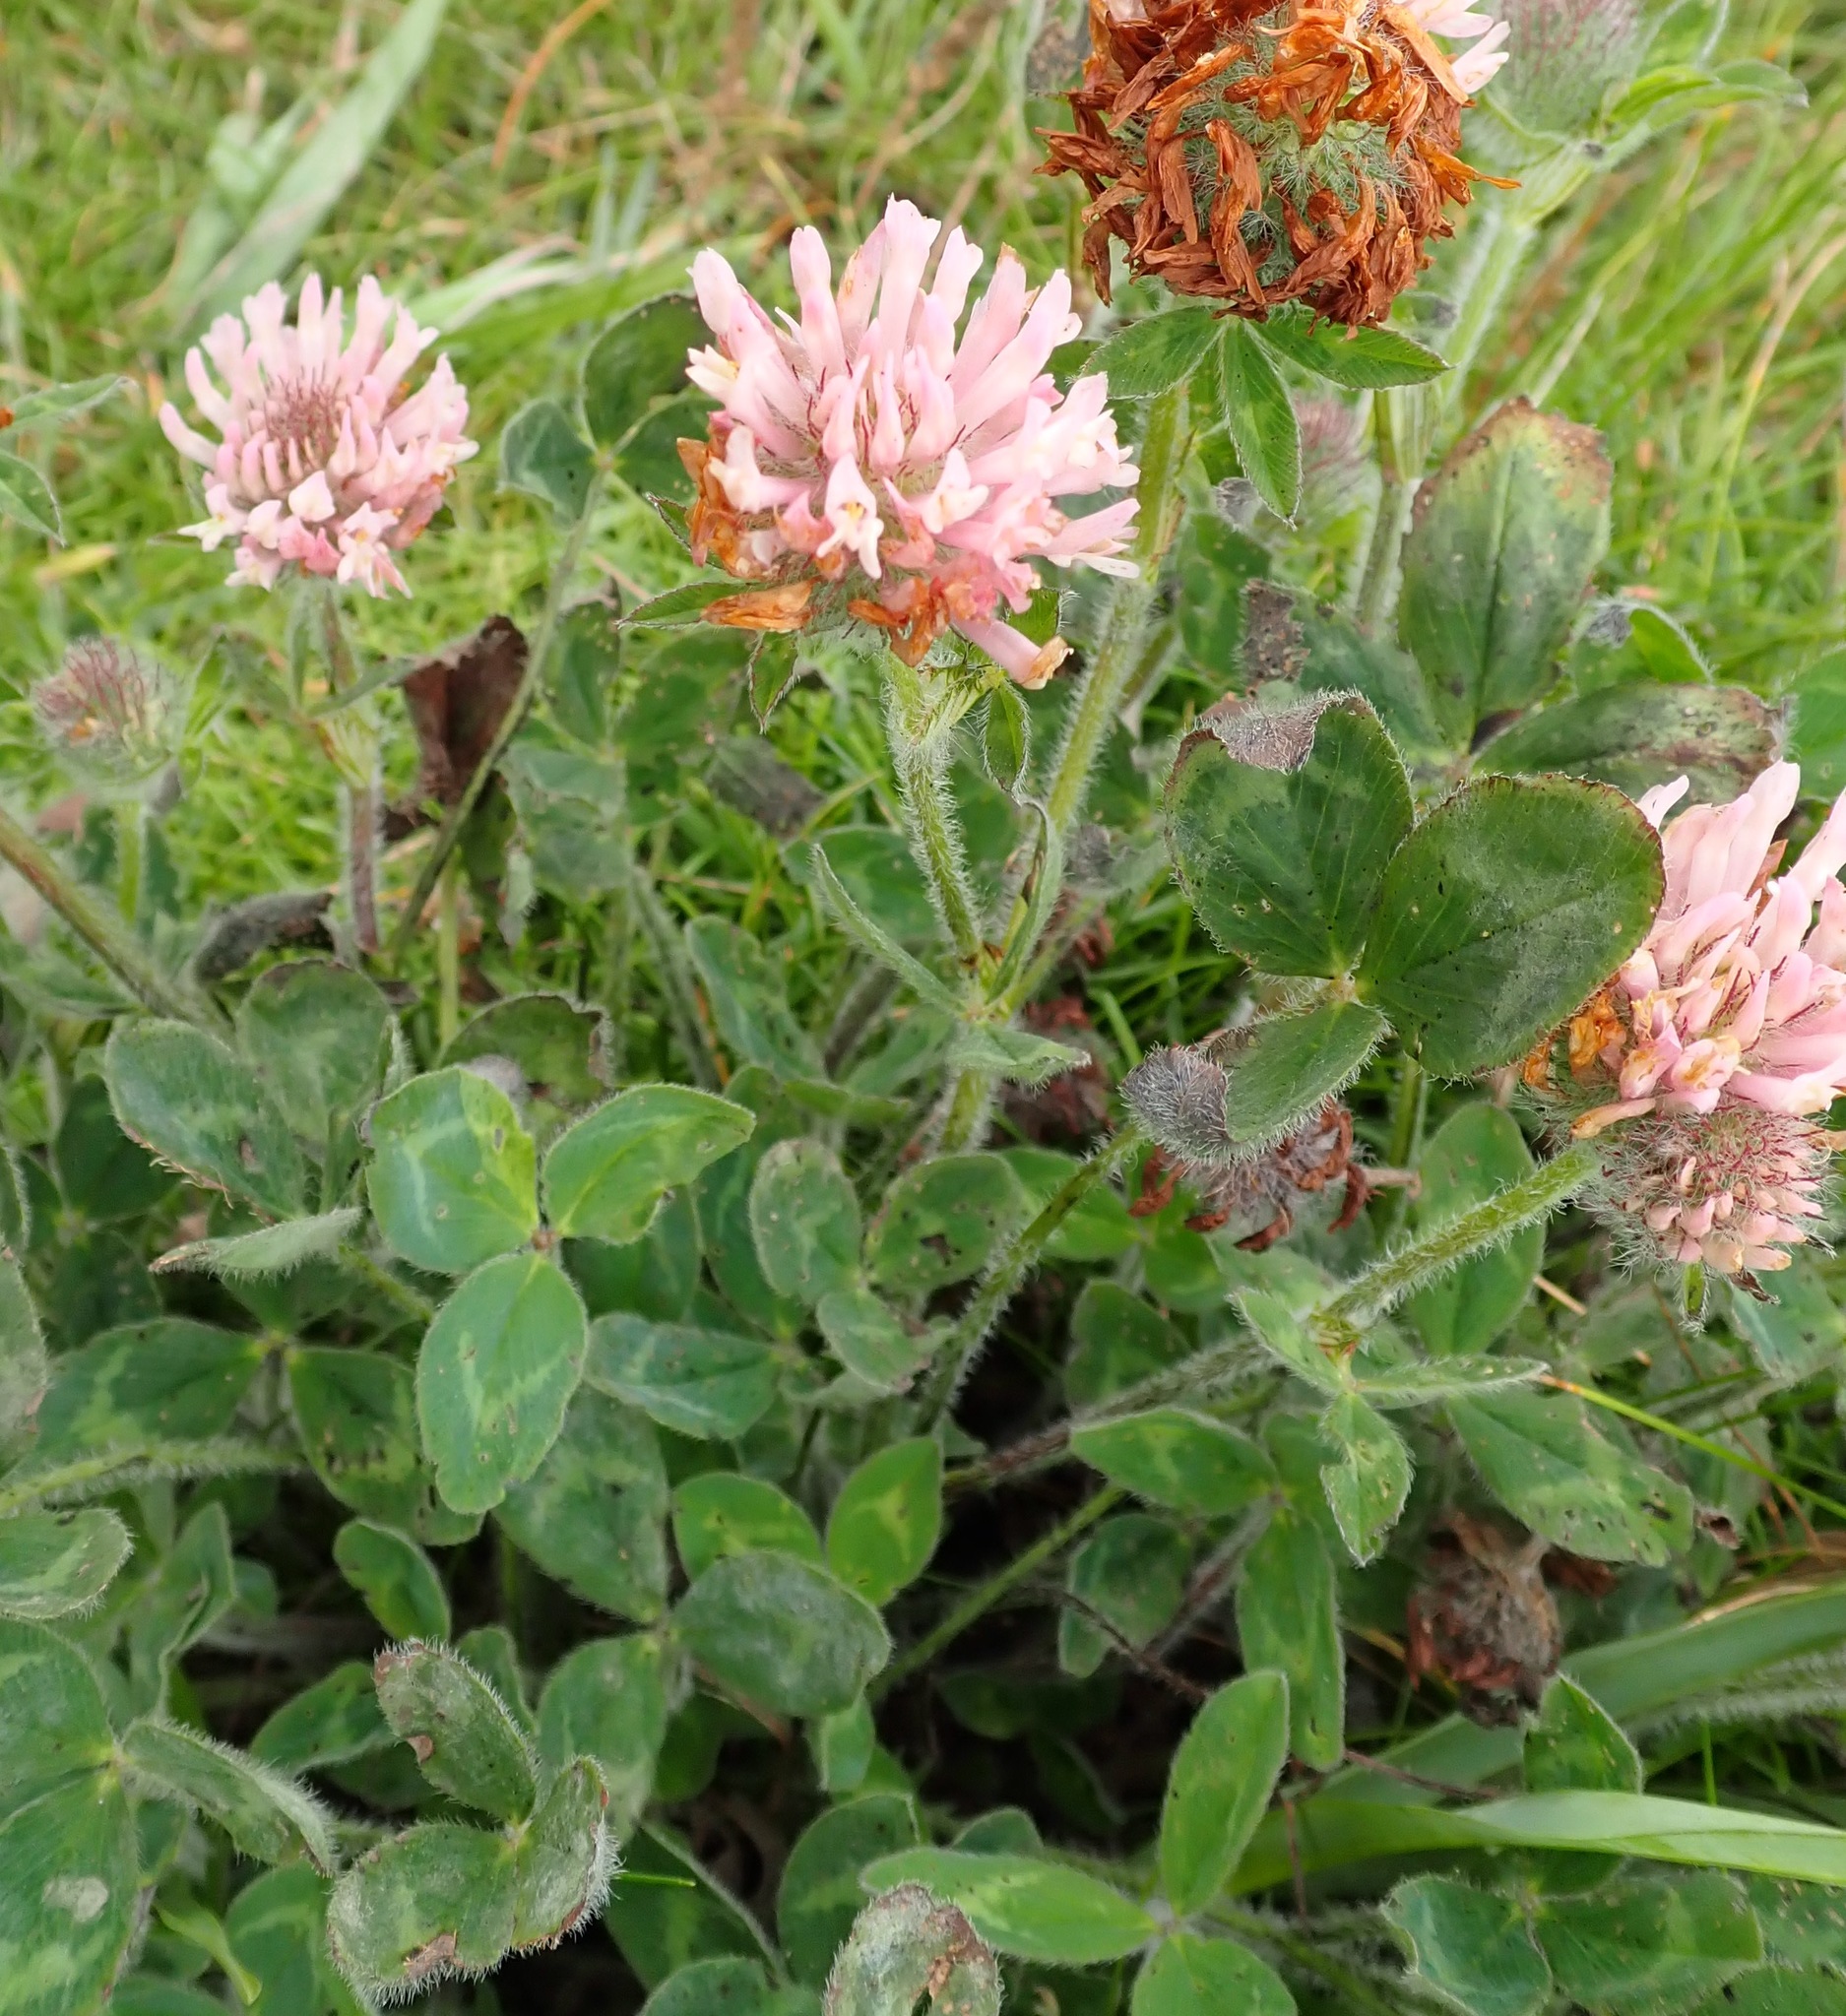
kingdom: Plantae
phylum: Tracheophyta
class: Magnoliopsida
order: Fabales
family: Fabaceae
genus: Trifolium
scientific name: Trifolium pratense
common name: Red clover
